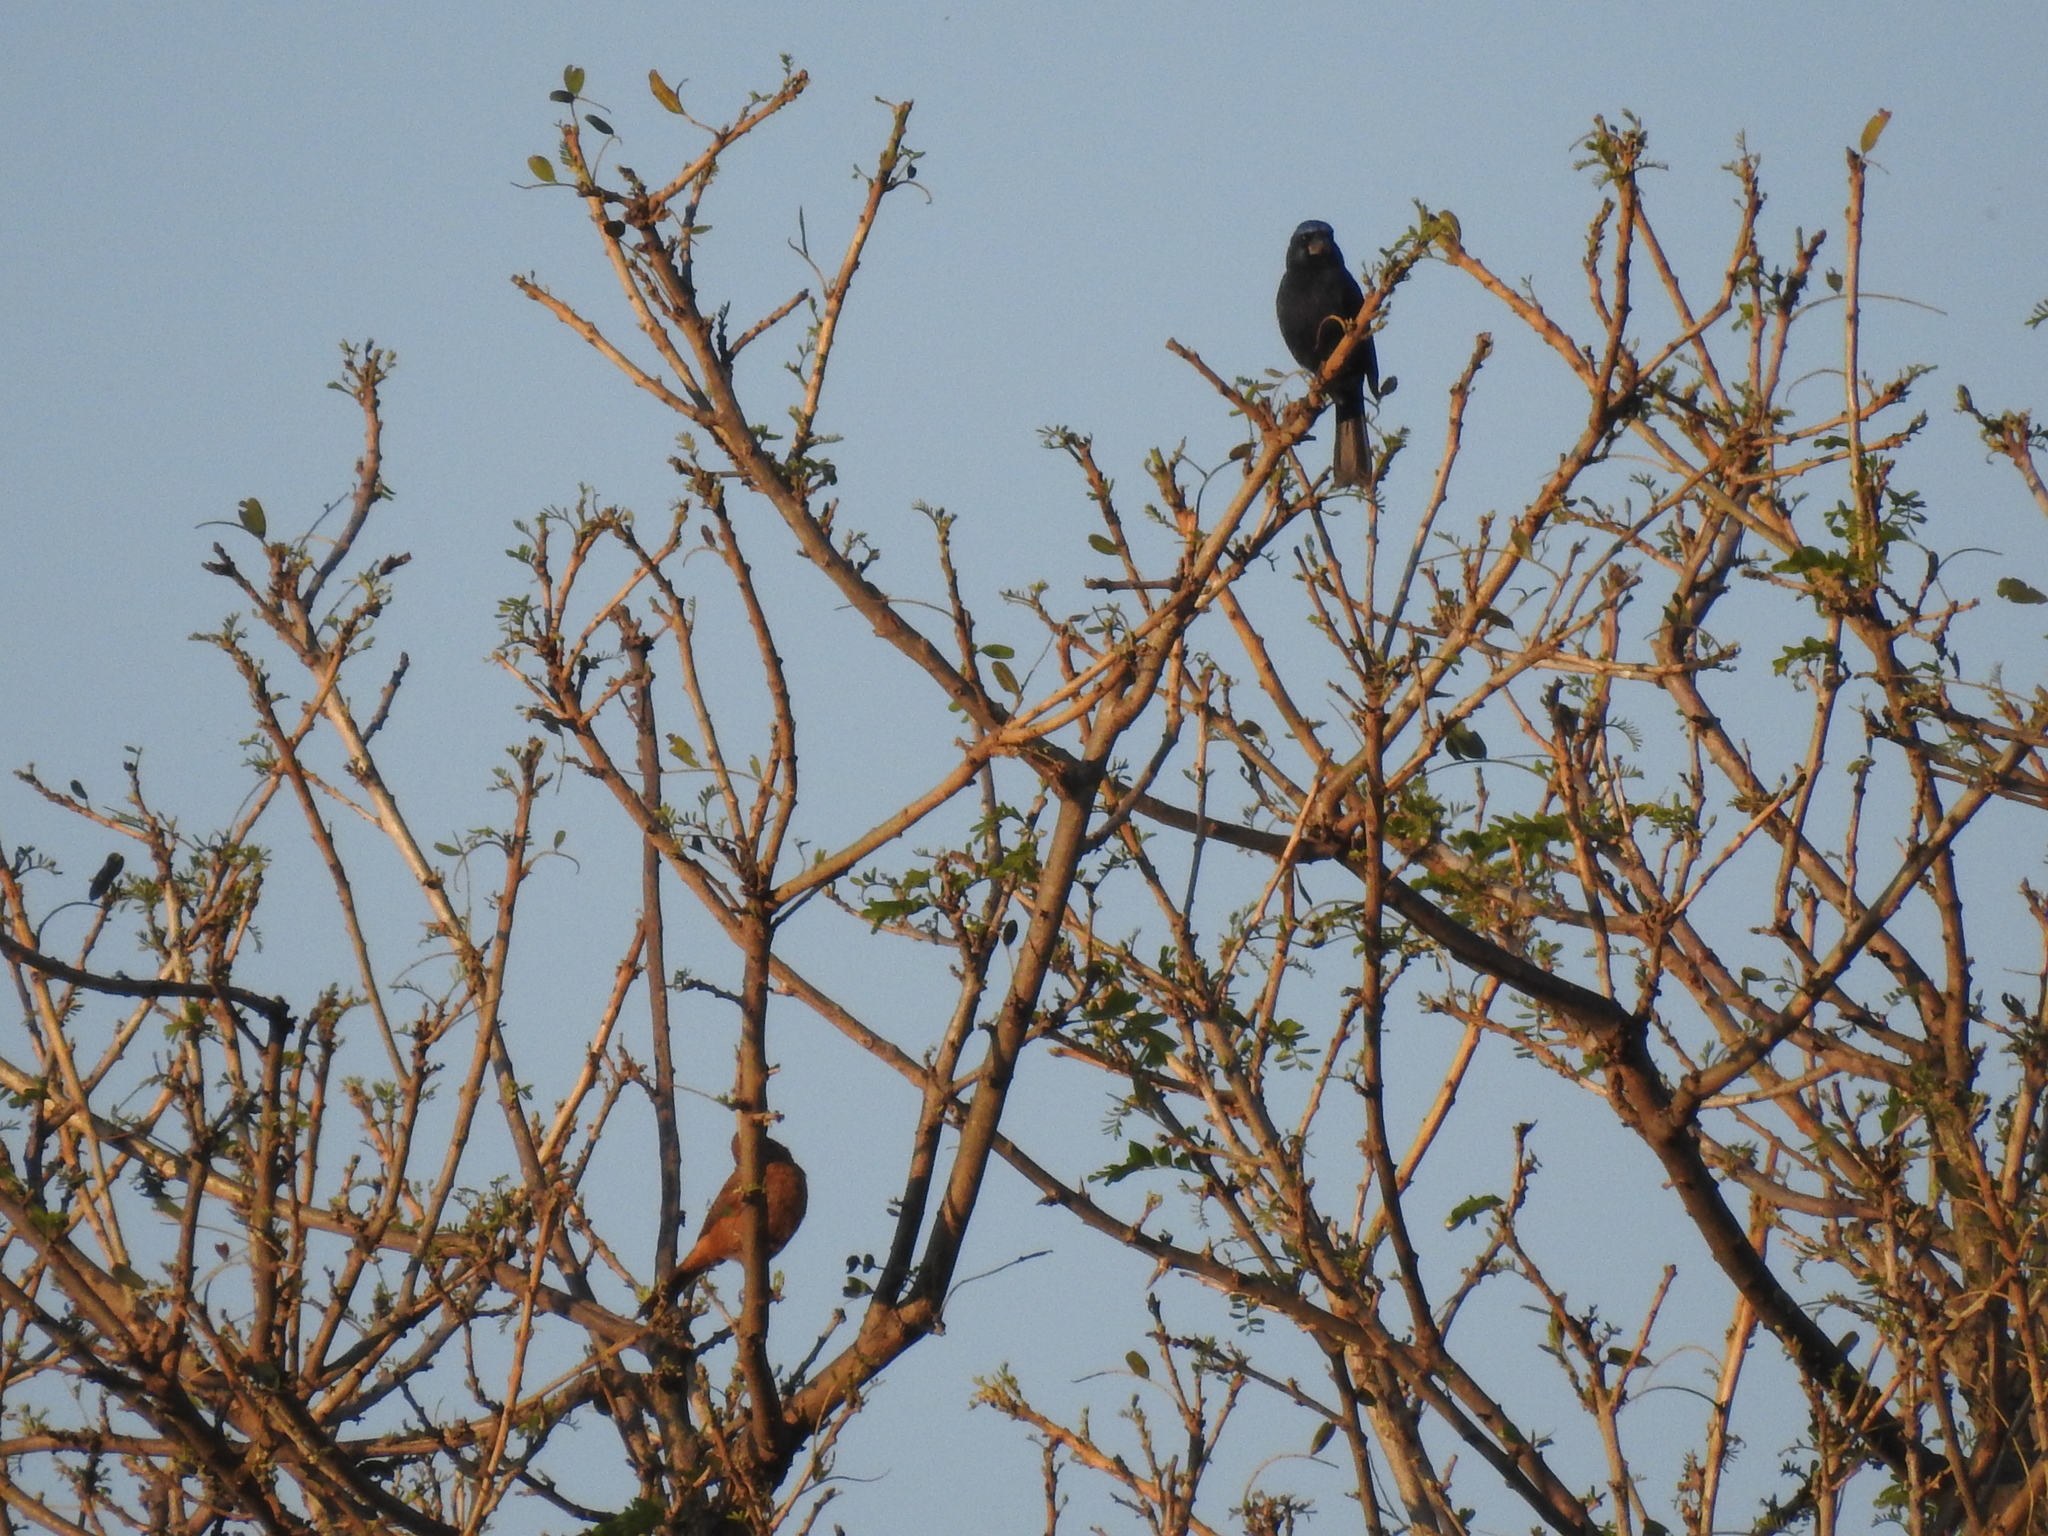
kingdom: Animalia
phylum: Chordata
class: Aves
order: Passeriformes
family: Cardinalidae
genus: Cyanoloxia
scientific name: Cyanoloxia brissonii
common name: Ultramarine grosbeak
